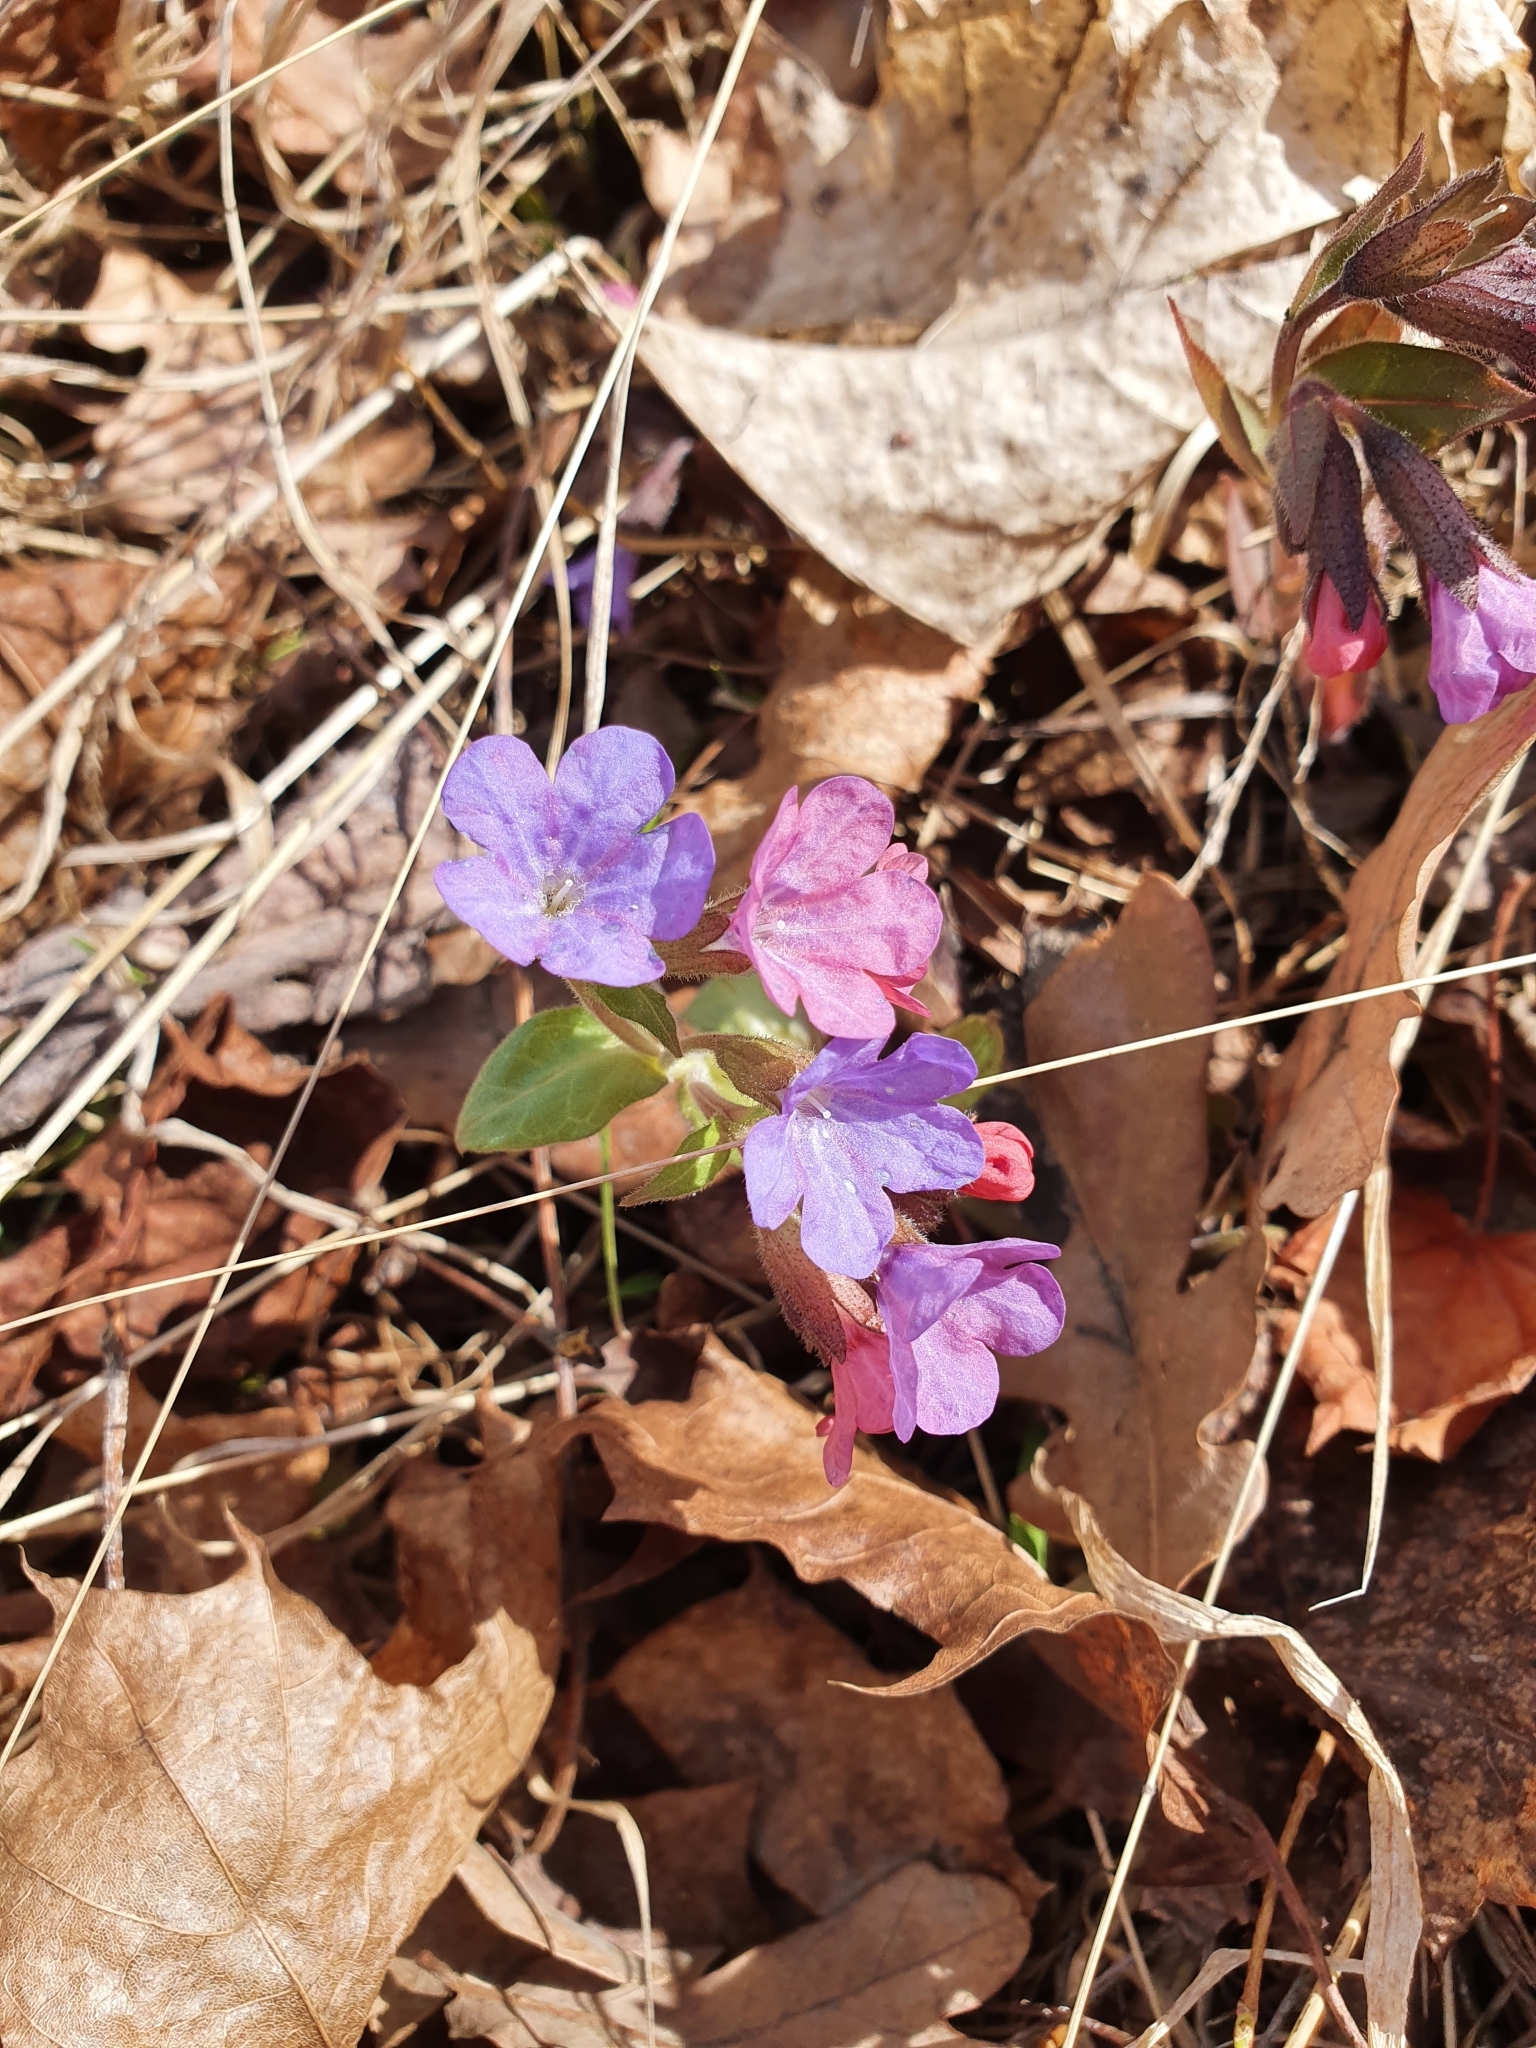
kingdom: Plantae
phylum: Tracheophyta
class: Magnoliopsida
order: Boraginales
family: Boraginaceae
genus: Pulmonaria
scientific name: Pulmonaria obscura
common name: Suffolk lungwort
